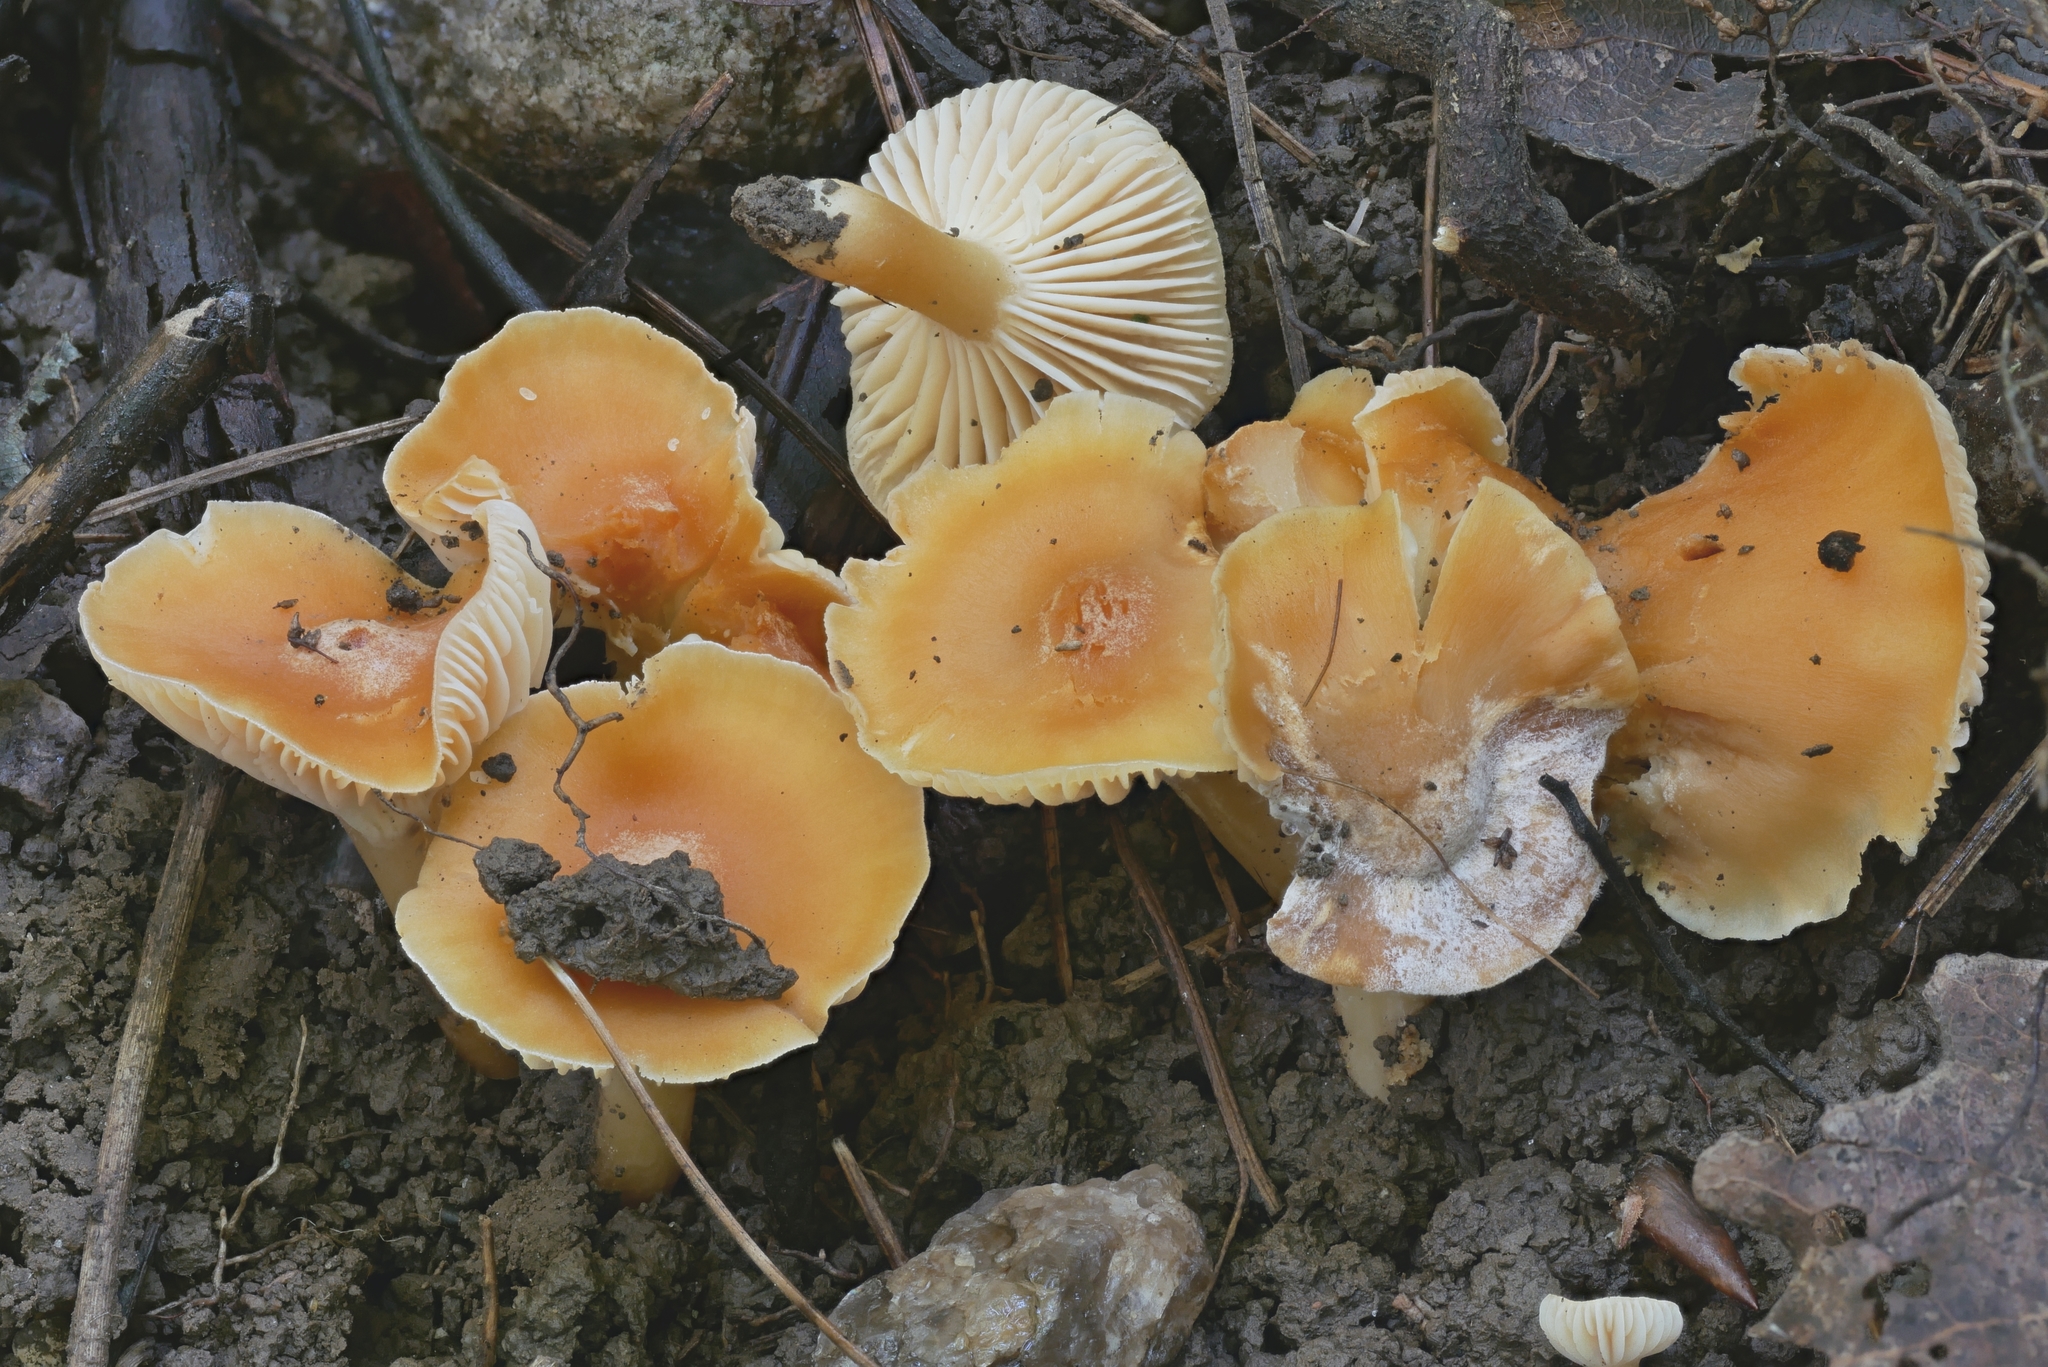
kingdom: Fungi
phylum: Basidiomycota
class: Agaricomycetes
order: Agaricales
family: Hygrophoraceae
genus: Cuphophyllus
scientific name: Cuphophyllus pratensis
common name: Meadow waxcap
